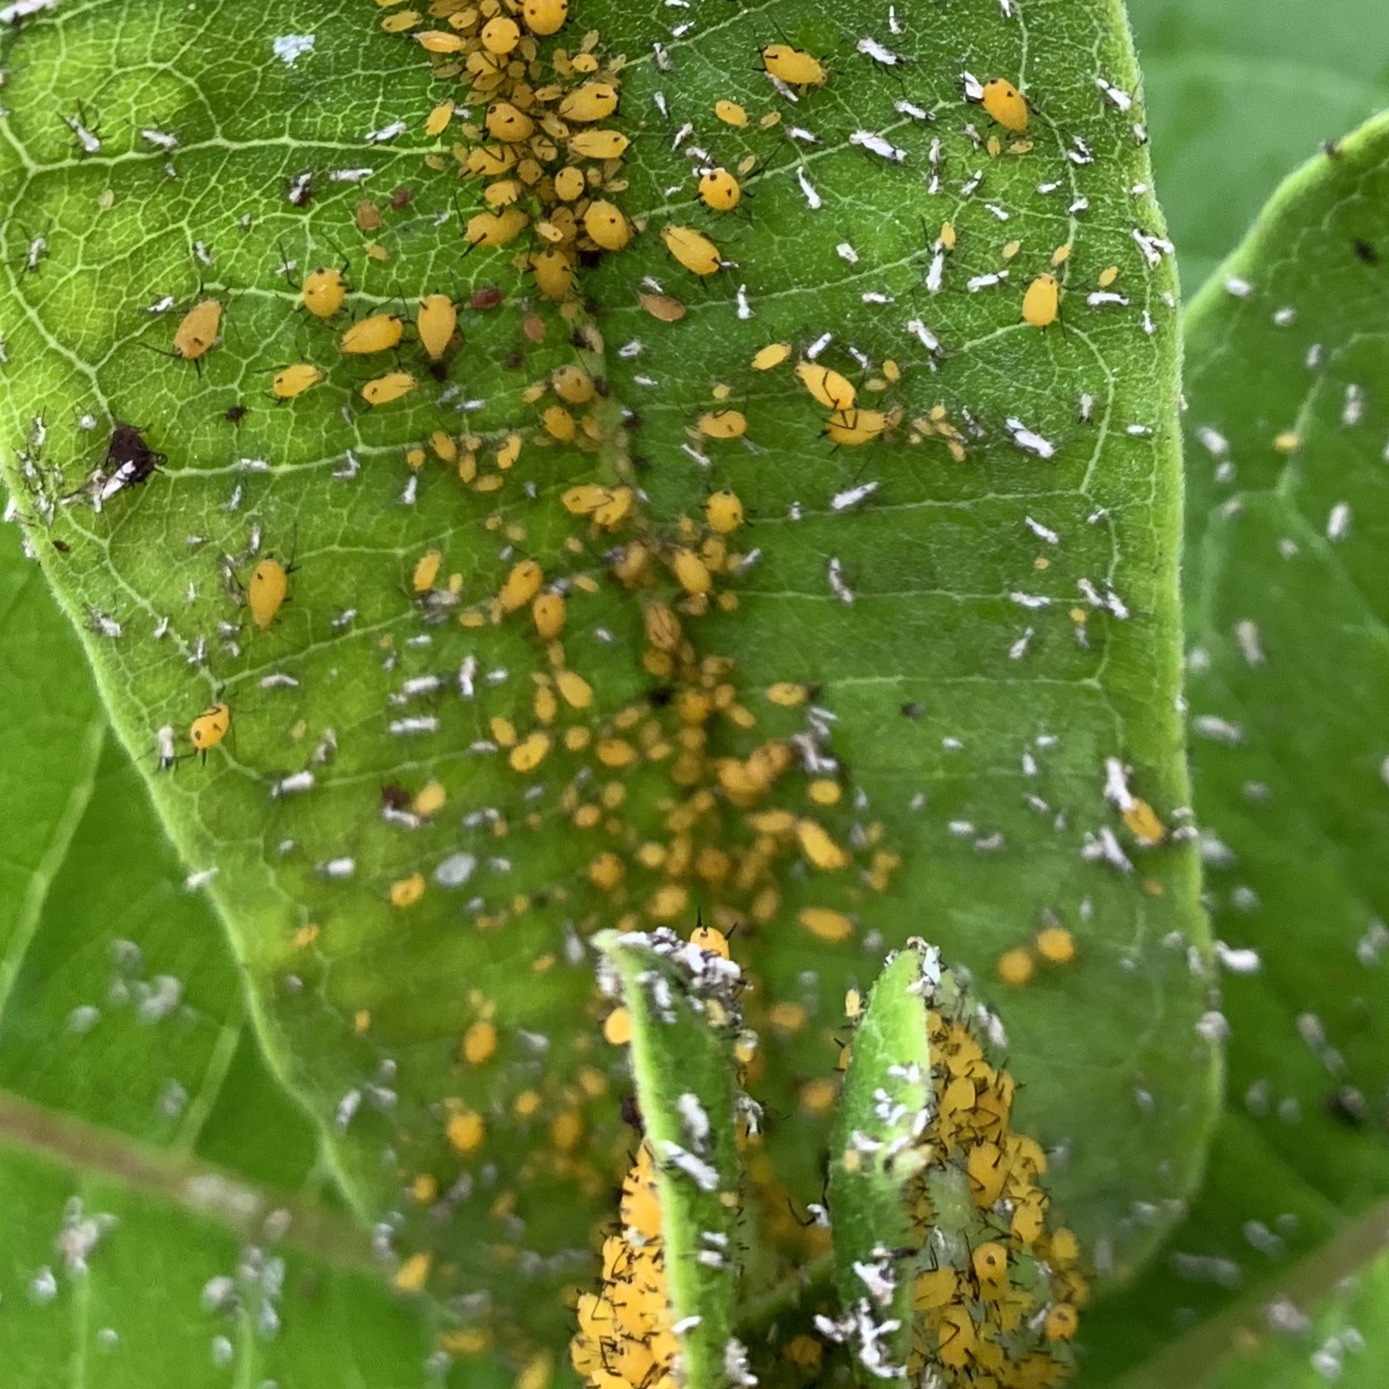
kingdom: Animalia
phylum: Arthropoda
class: Insecta
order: Hemiptera
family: Aphididae
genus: Aphis
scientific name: Aphis nerii
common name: Oleander aphid
